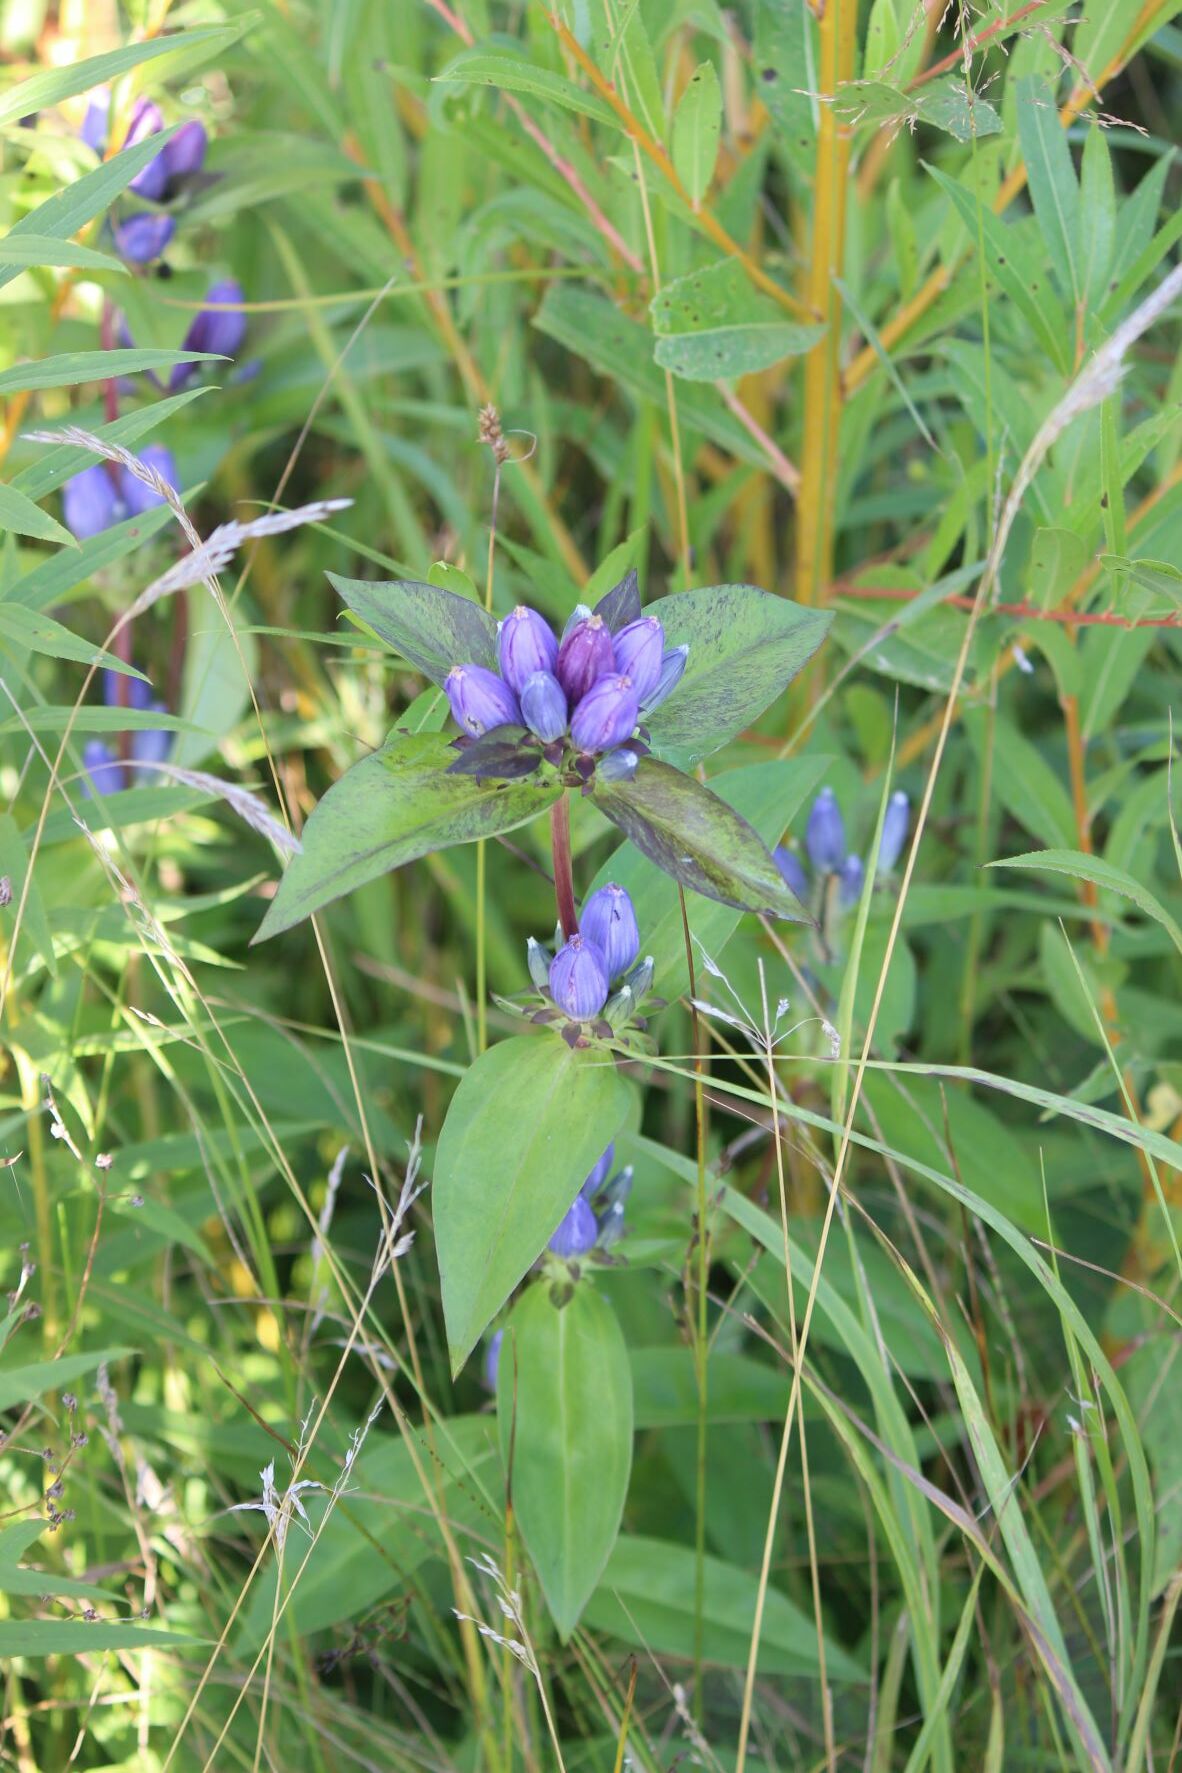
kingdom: Plantae
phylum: Tracheophyta
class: Magnoliopsida
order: Gentianales
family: Gentianaceae
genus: Gentiana
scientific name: Gentiana andrewsii
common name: Bottle gentian
